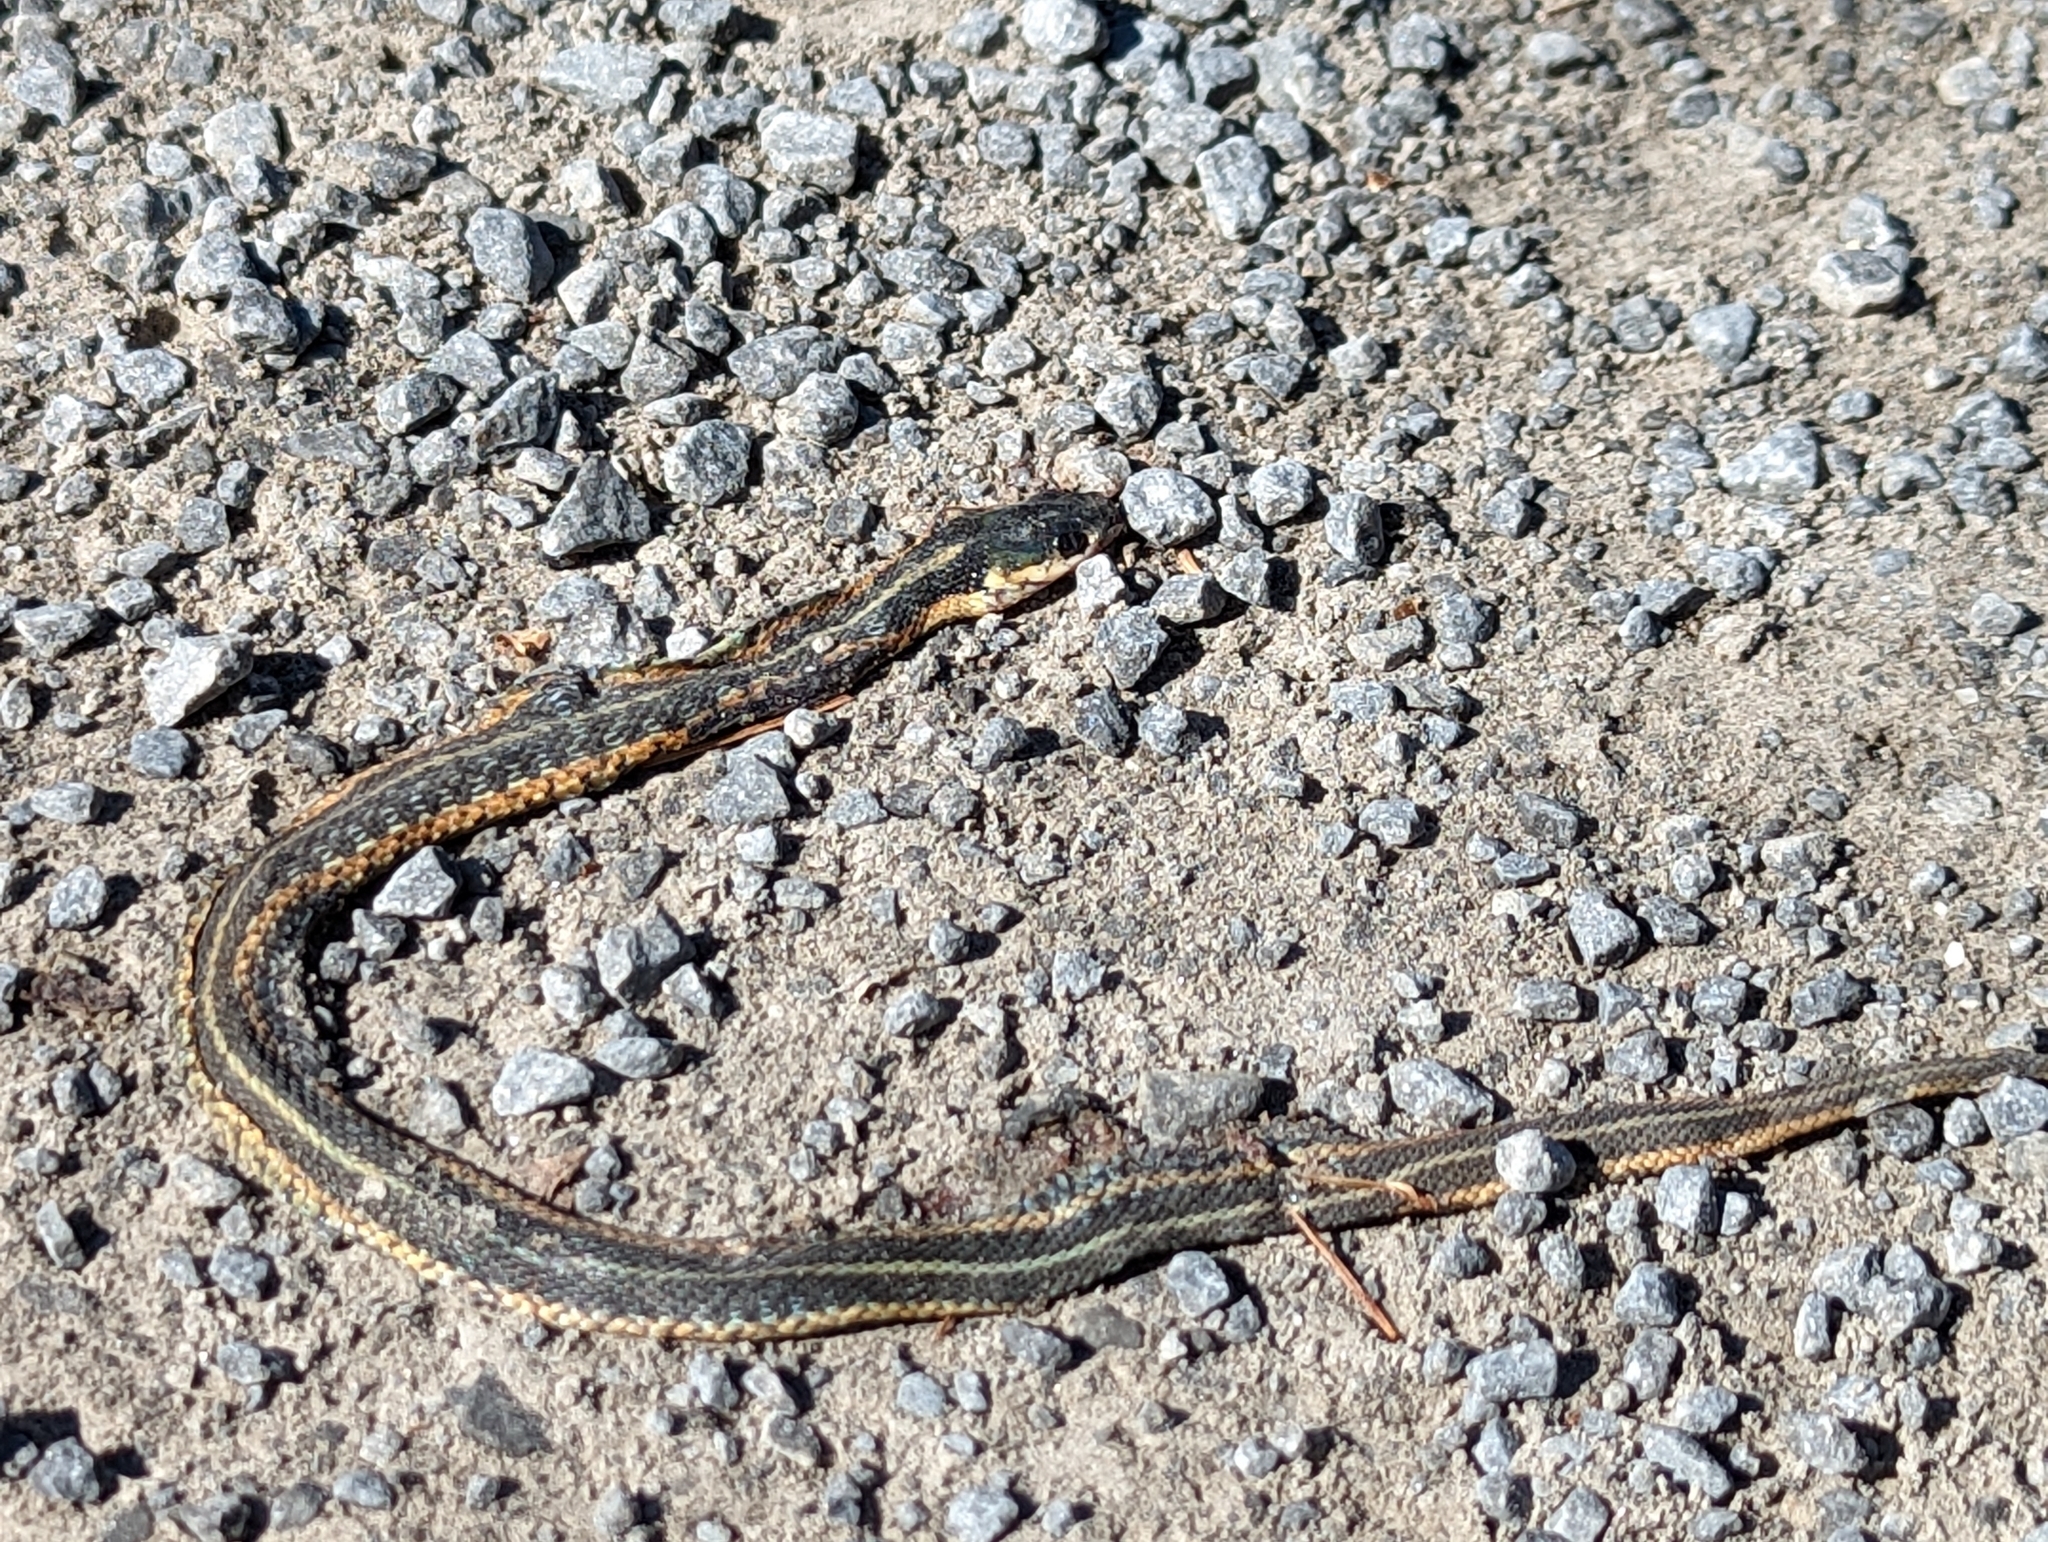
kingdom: Animalia
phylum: Chordata
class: Squamata
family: Colubridae
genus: Thamnophis
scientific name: Thamnophis sirtalis
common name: Common garter snake
